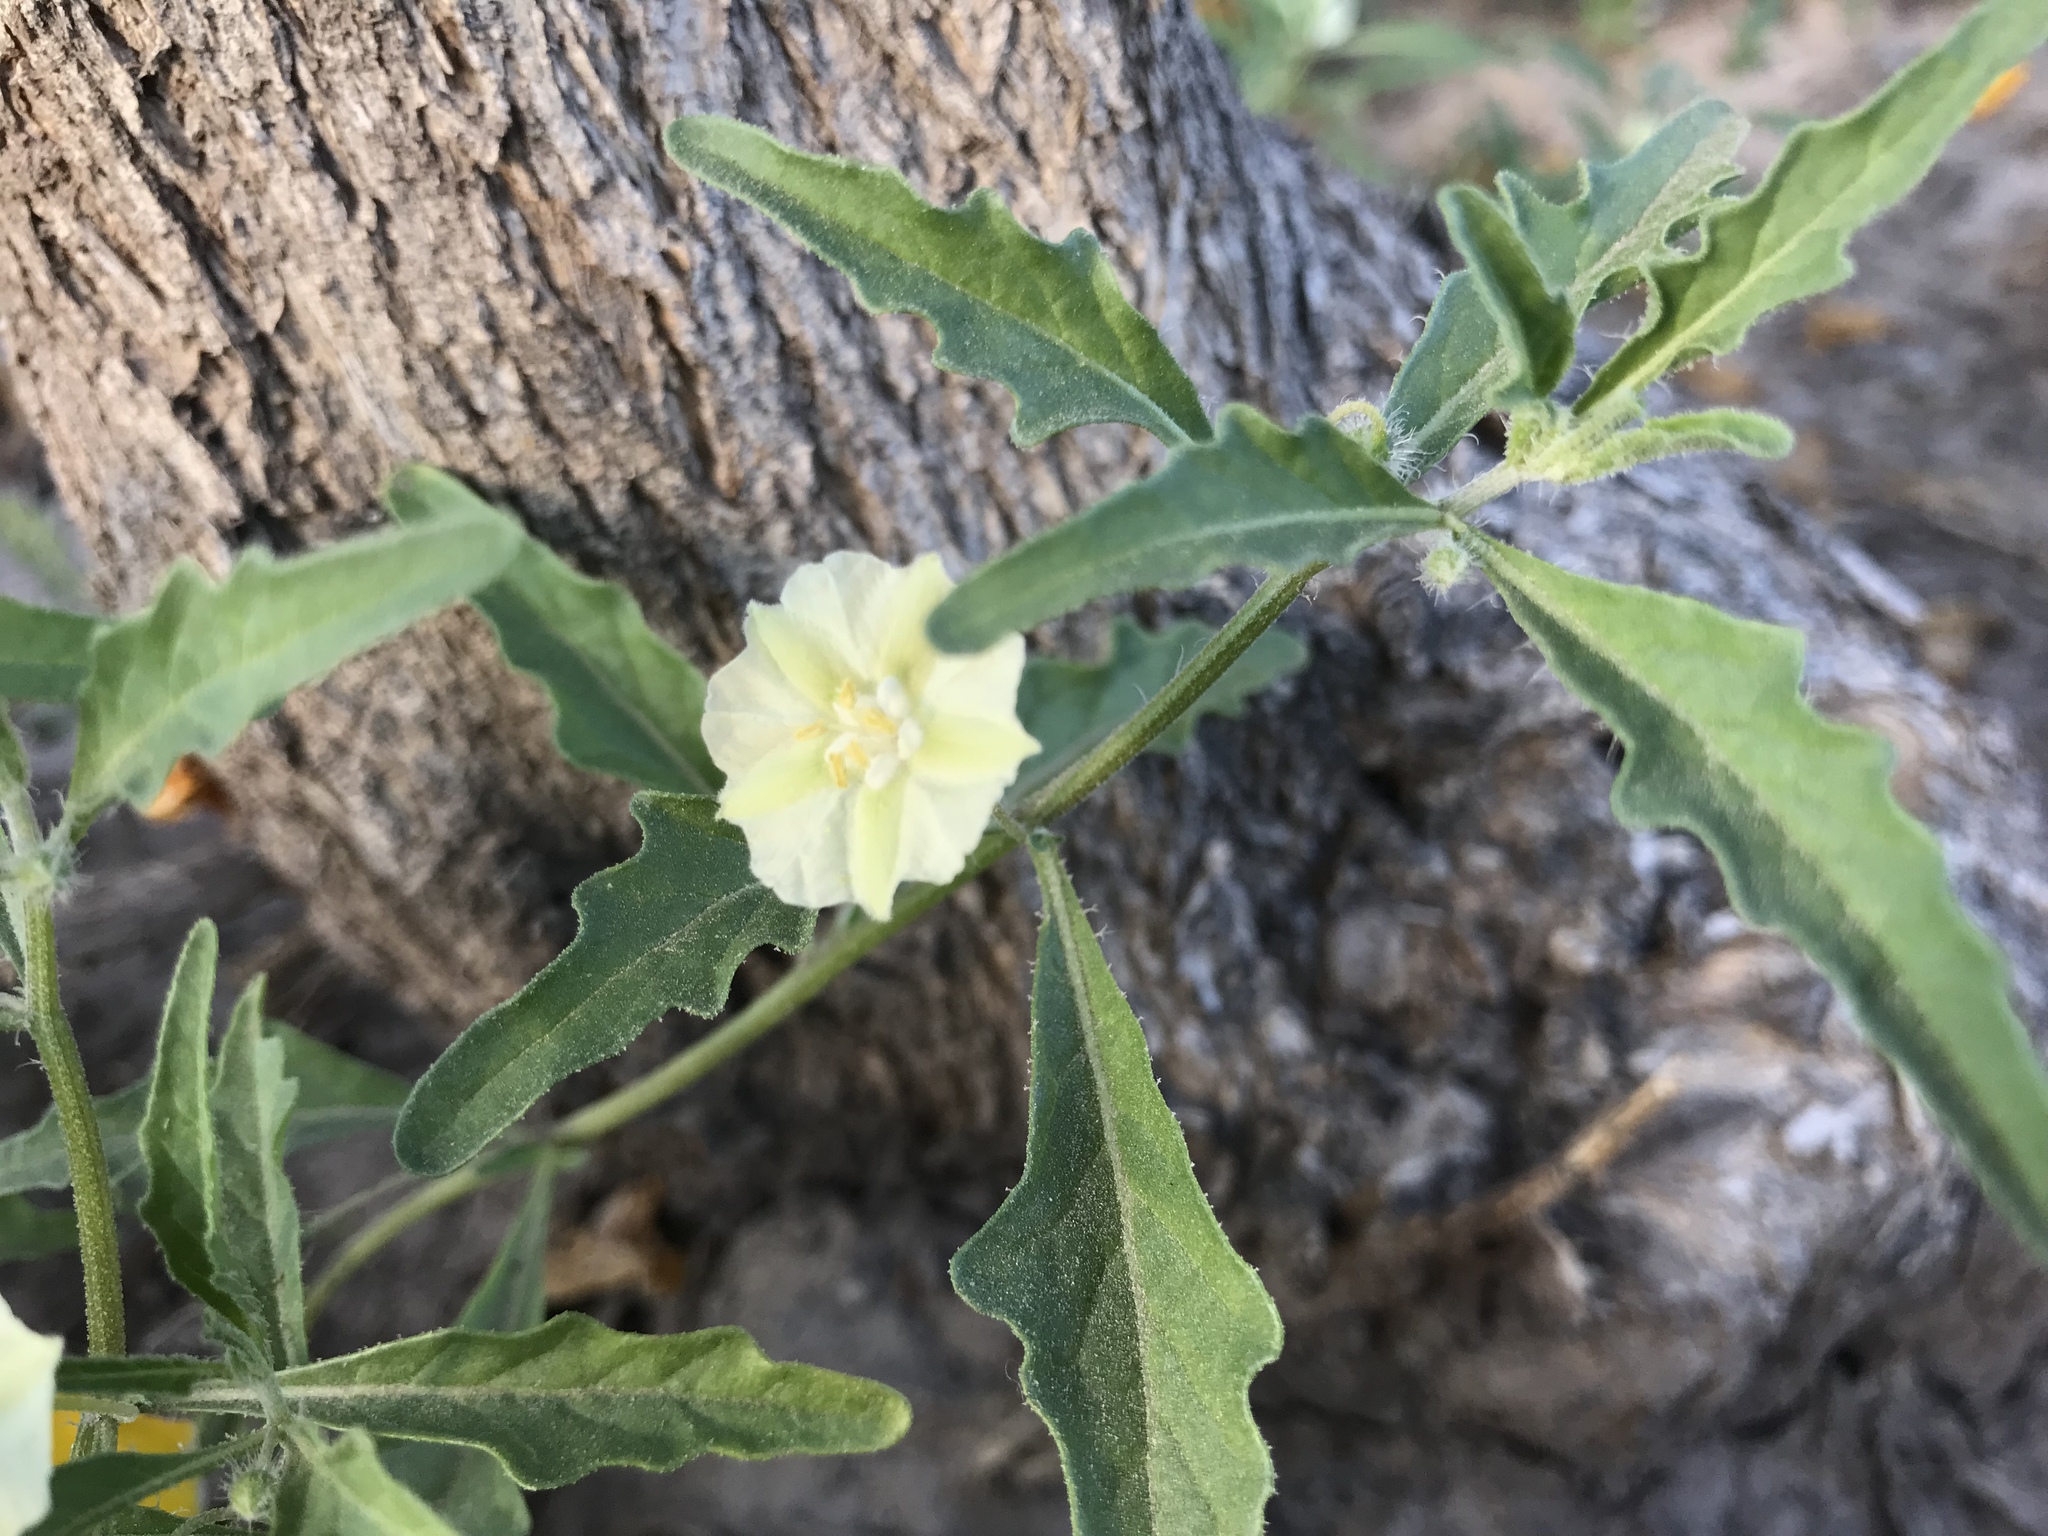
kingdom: Plantae
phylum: Tracheophyta
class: Magnoliopsida
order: Solanales
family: Solanaceae
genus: Chamaesaracha
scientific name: Chamaesaracha coronopus
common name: Smooth chamaesaracha
